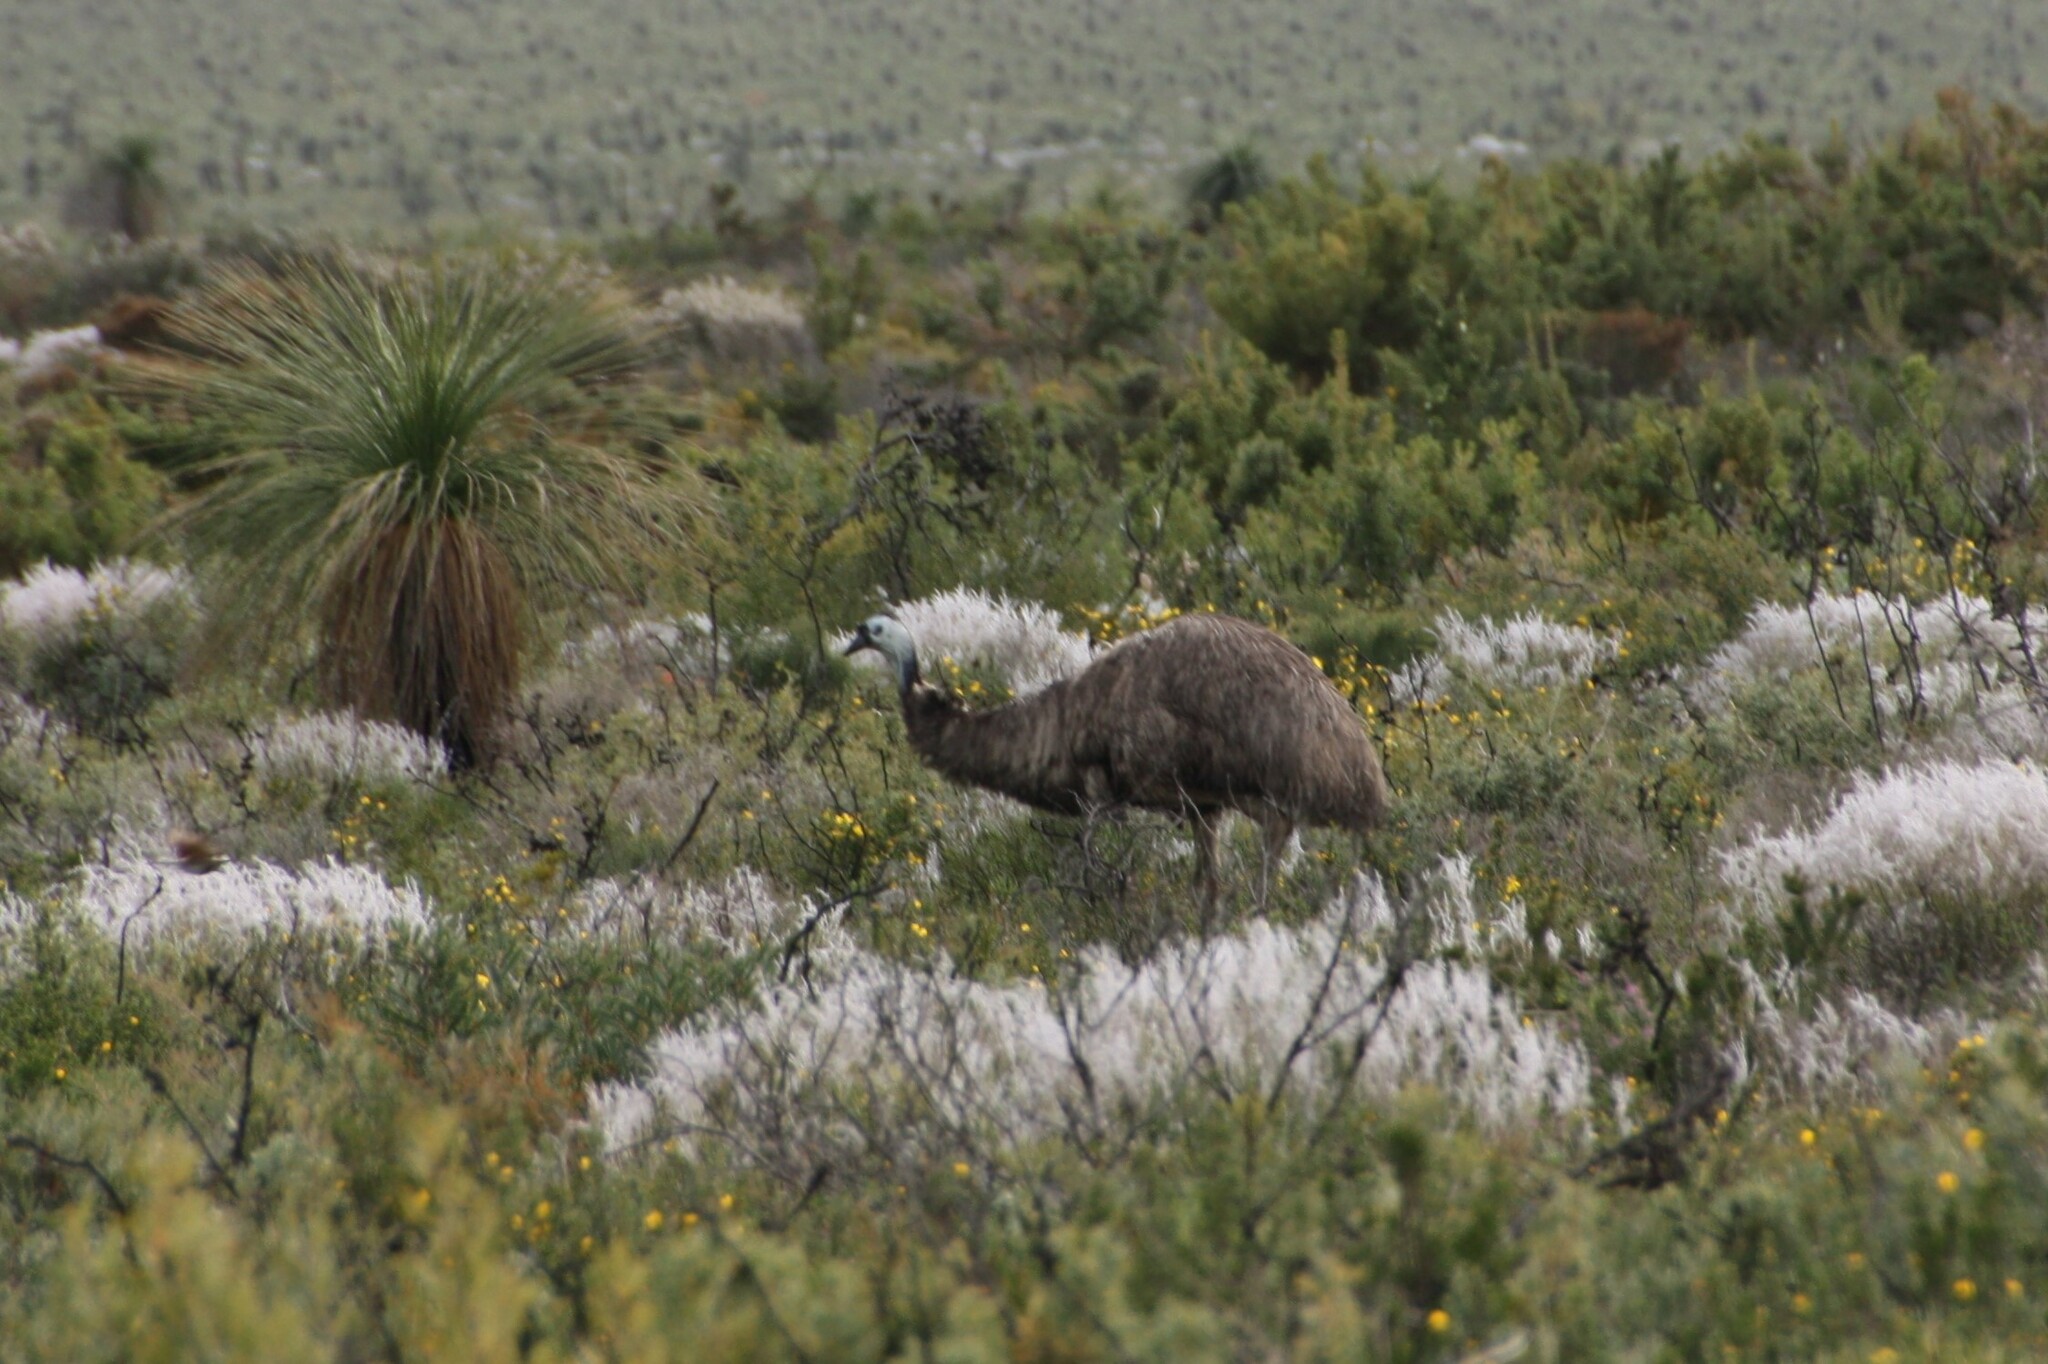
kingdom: Animalia
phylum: Chordata
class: Aves
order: Casuariiformes
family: Dromaiidae
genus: Dromaius
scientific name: Dromaius novaehollandiae
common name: Emu
